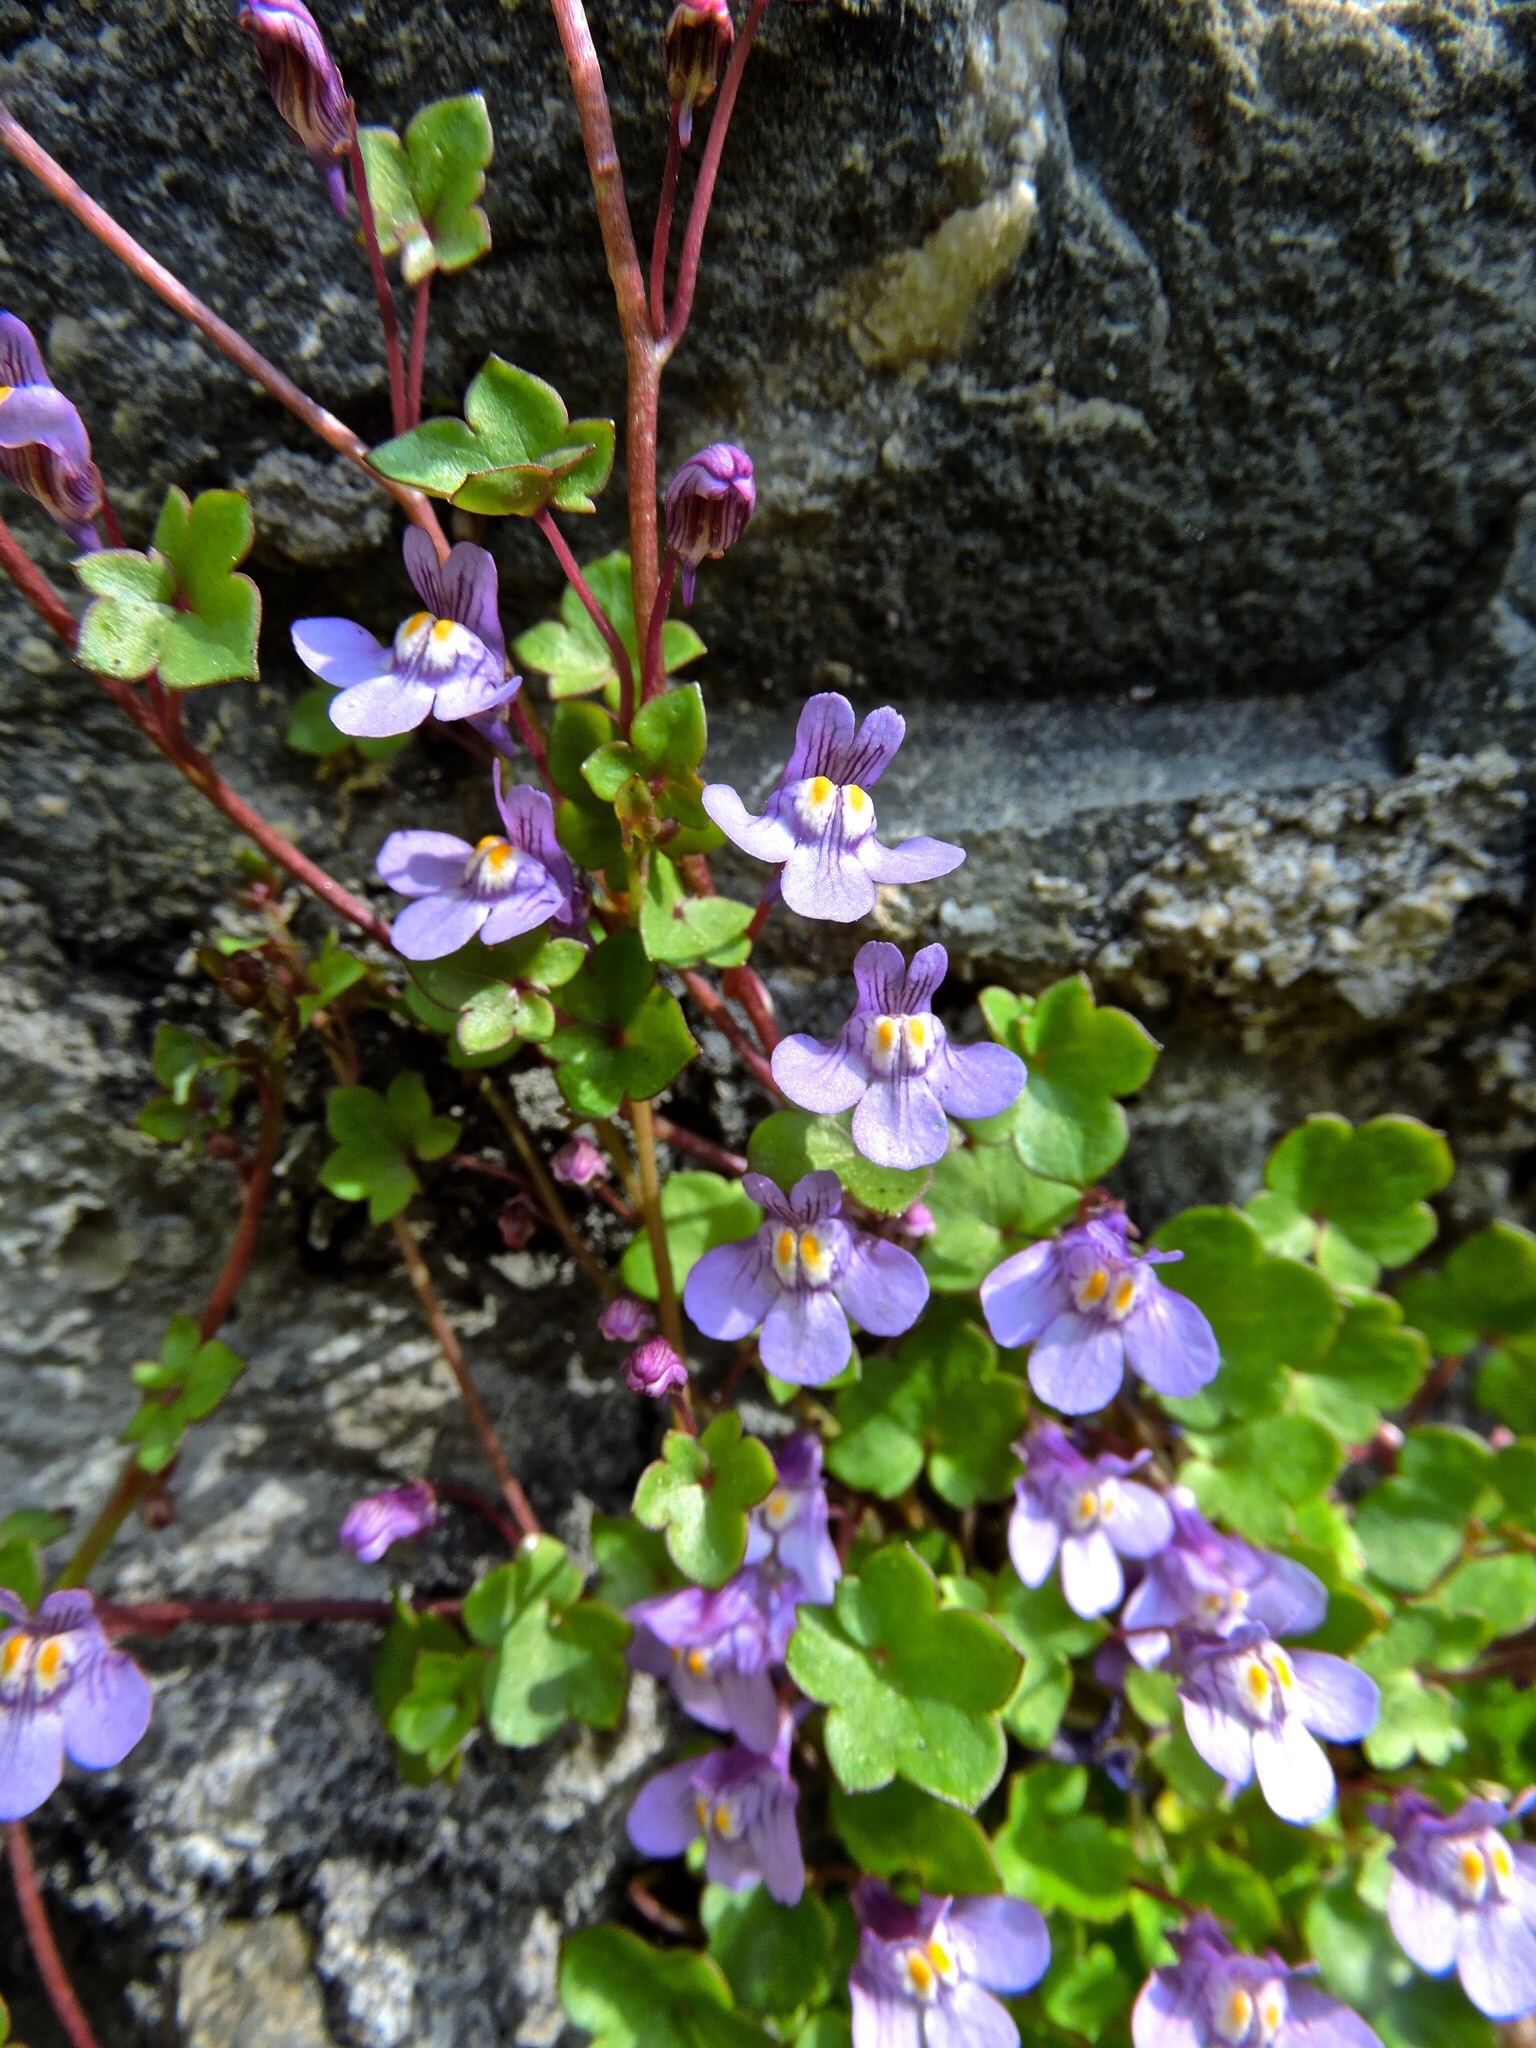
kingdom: Plantae
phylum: Tracheophyta
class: Magnoliopsida
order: Lamiales
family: Plantaginaceae
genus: Cymbalaria
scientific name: Cymbalaria muralis
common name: Ivy-leaved toadflax
